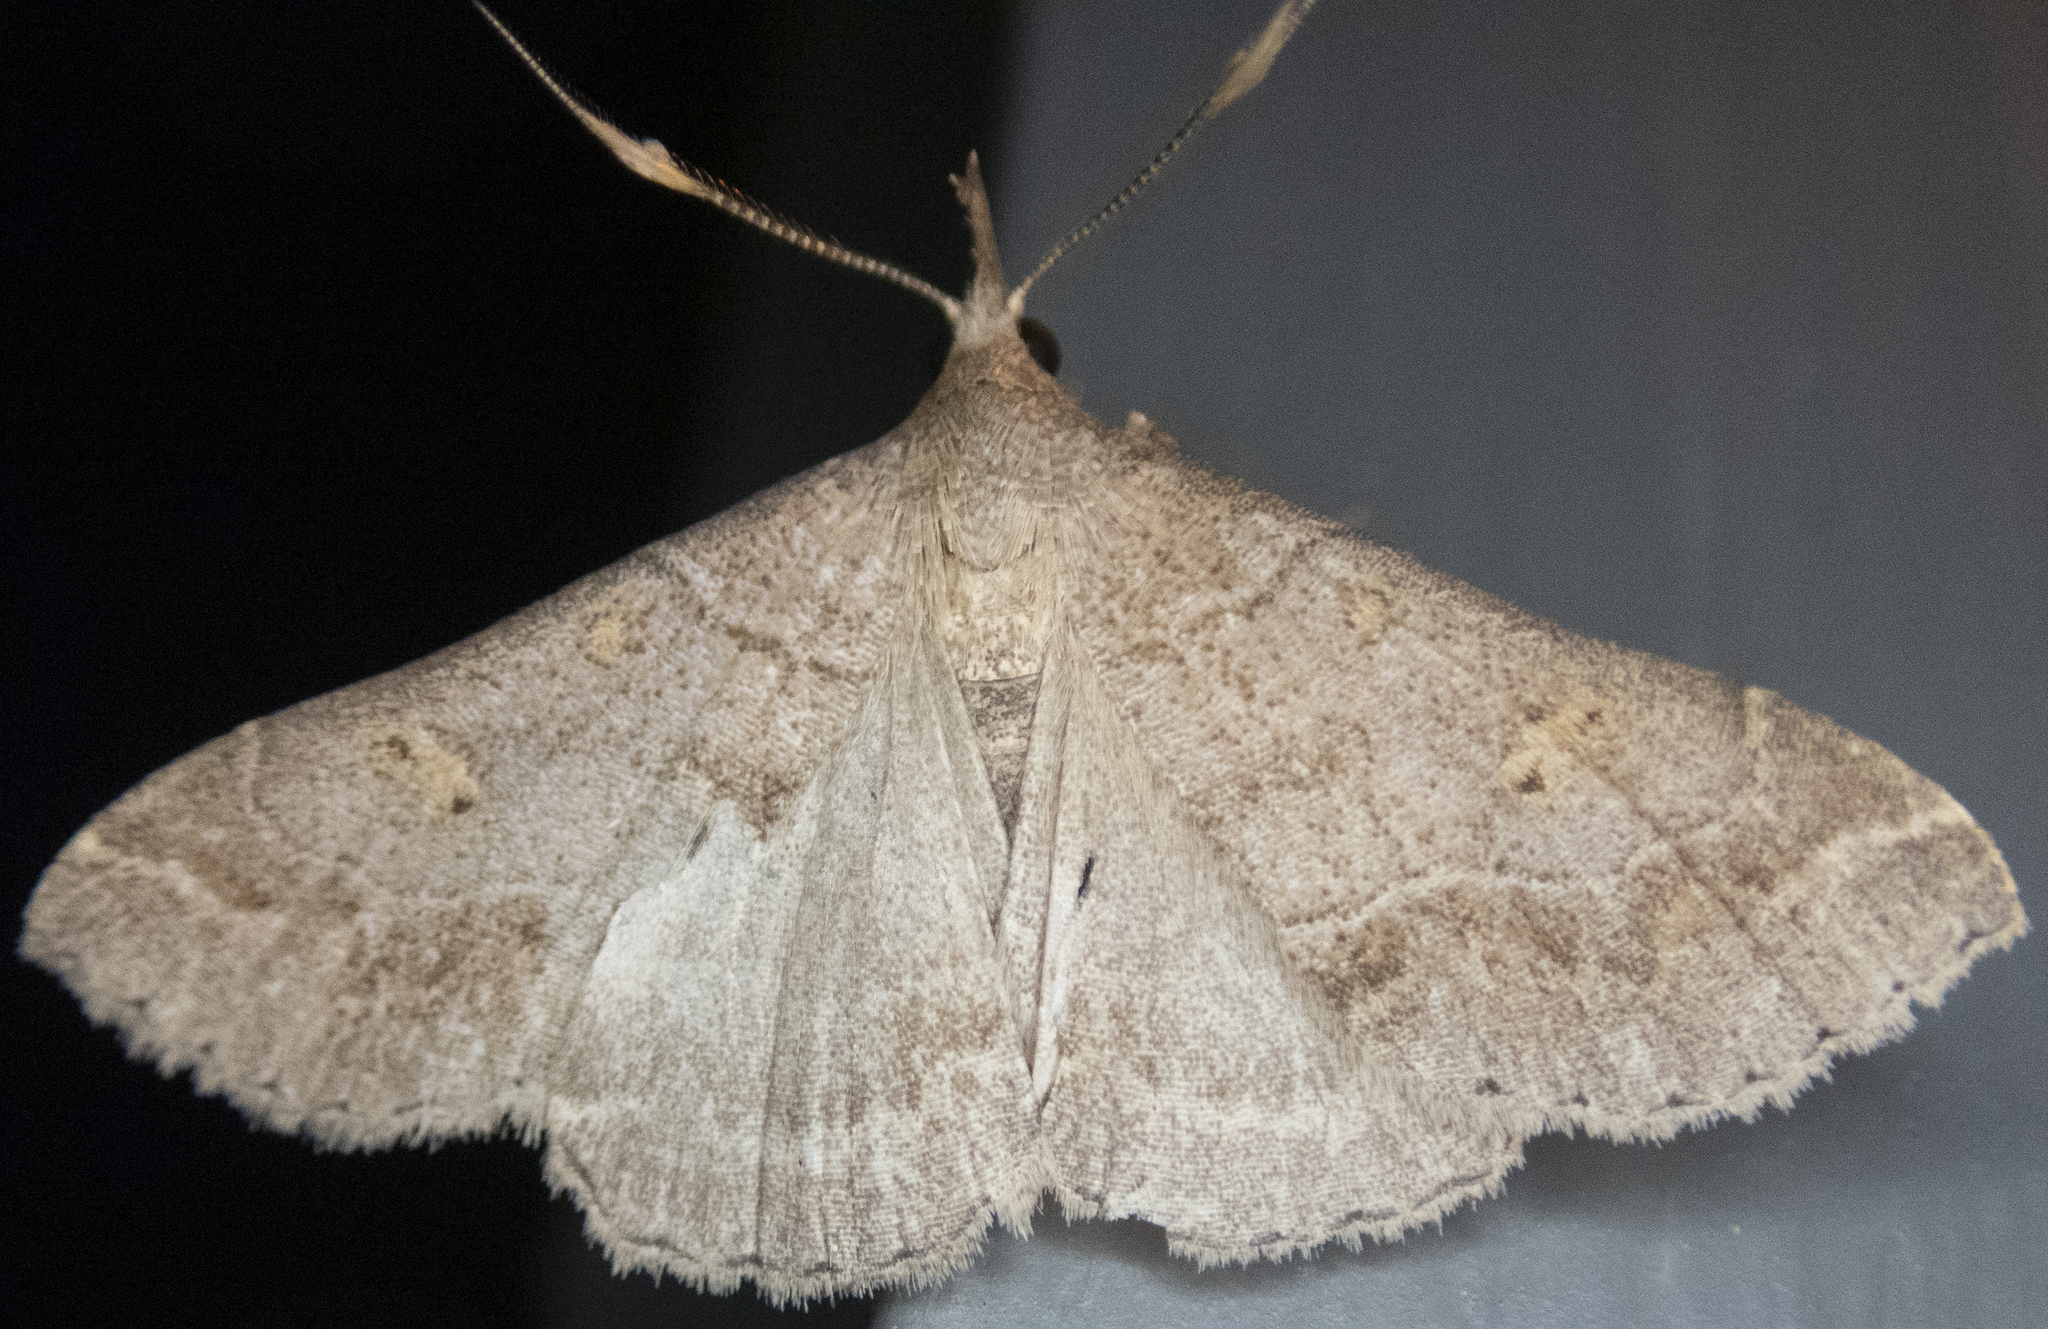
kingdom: Animalia
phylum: Arthropoda
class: Insecta
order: Lepidoptera
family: Erebidae
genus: Renia
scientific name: Renia flavipunctalis
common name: Yellow-spotted renia moth
